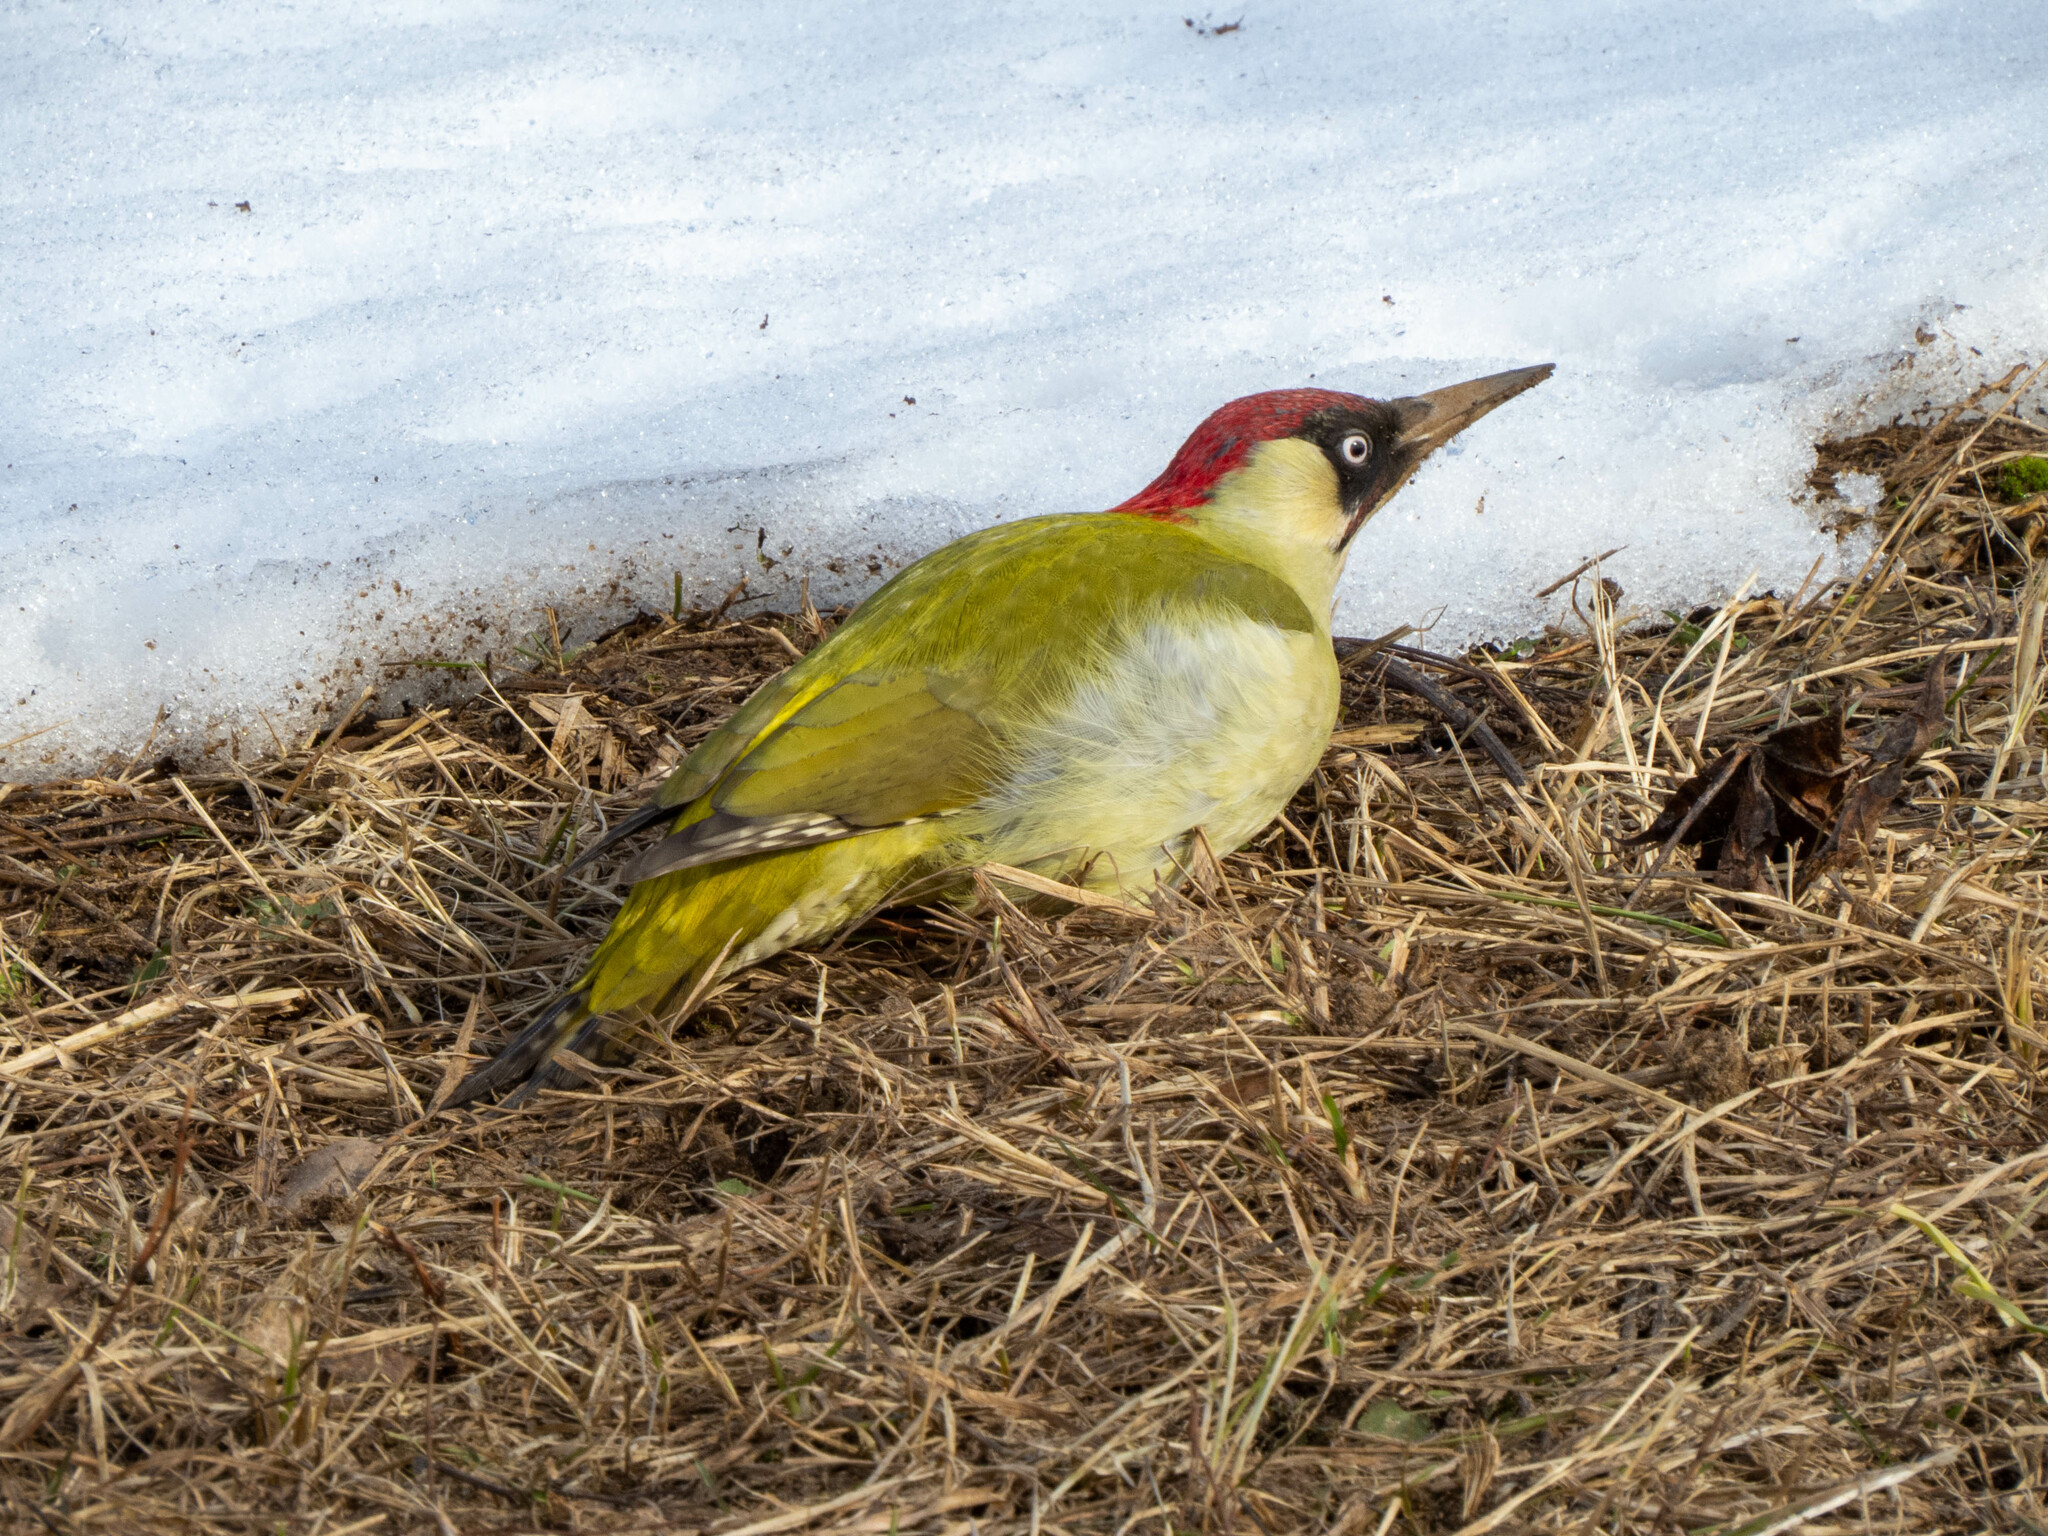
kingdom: Animalia
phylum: Chordata
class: Aves
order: Piciformes
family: Picidae
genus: Picus
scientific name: Picus viridis
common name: European green woodpecker
